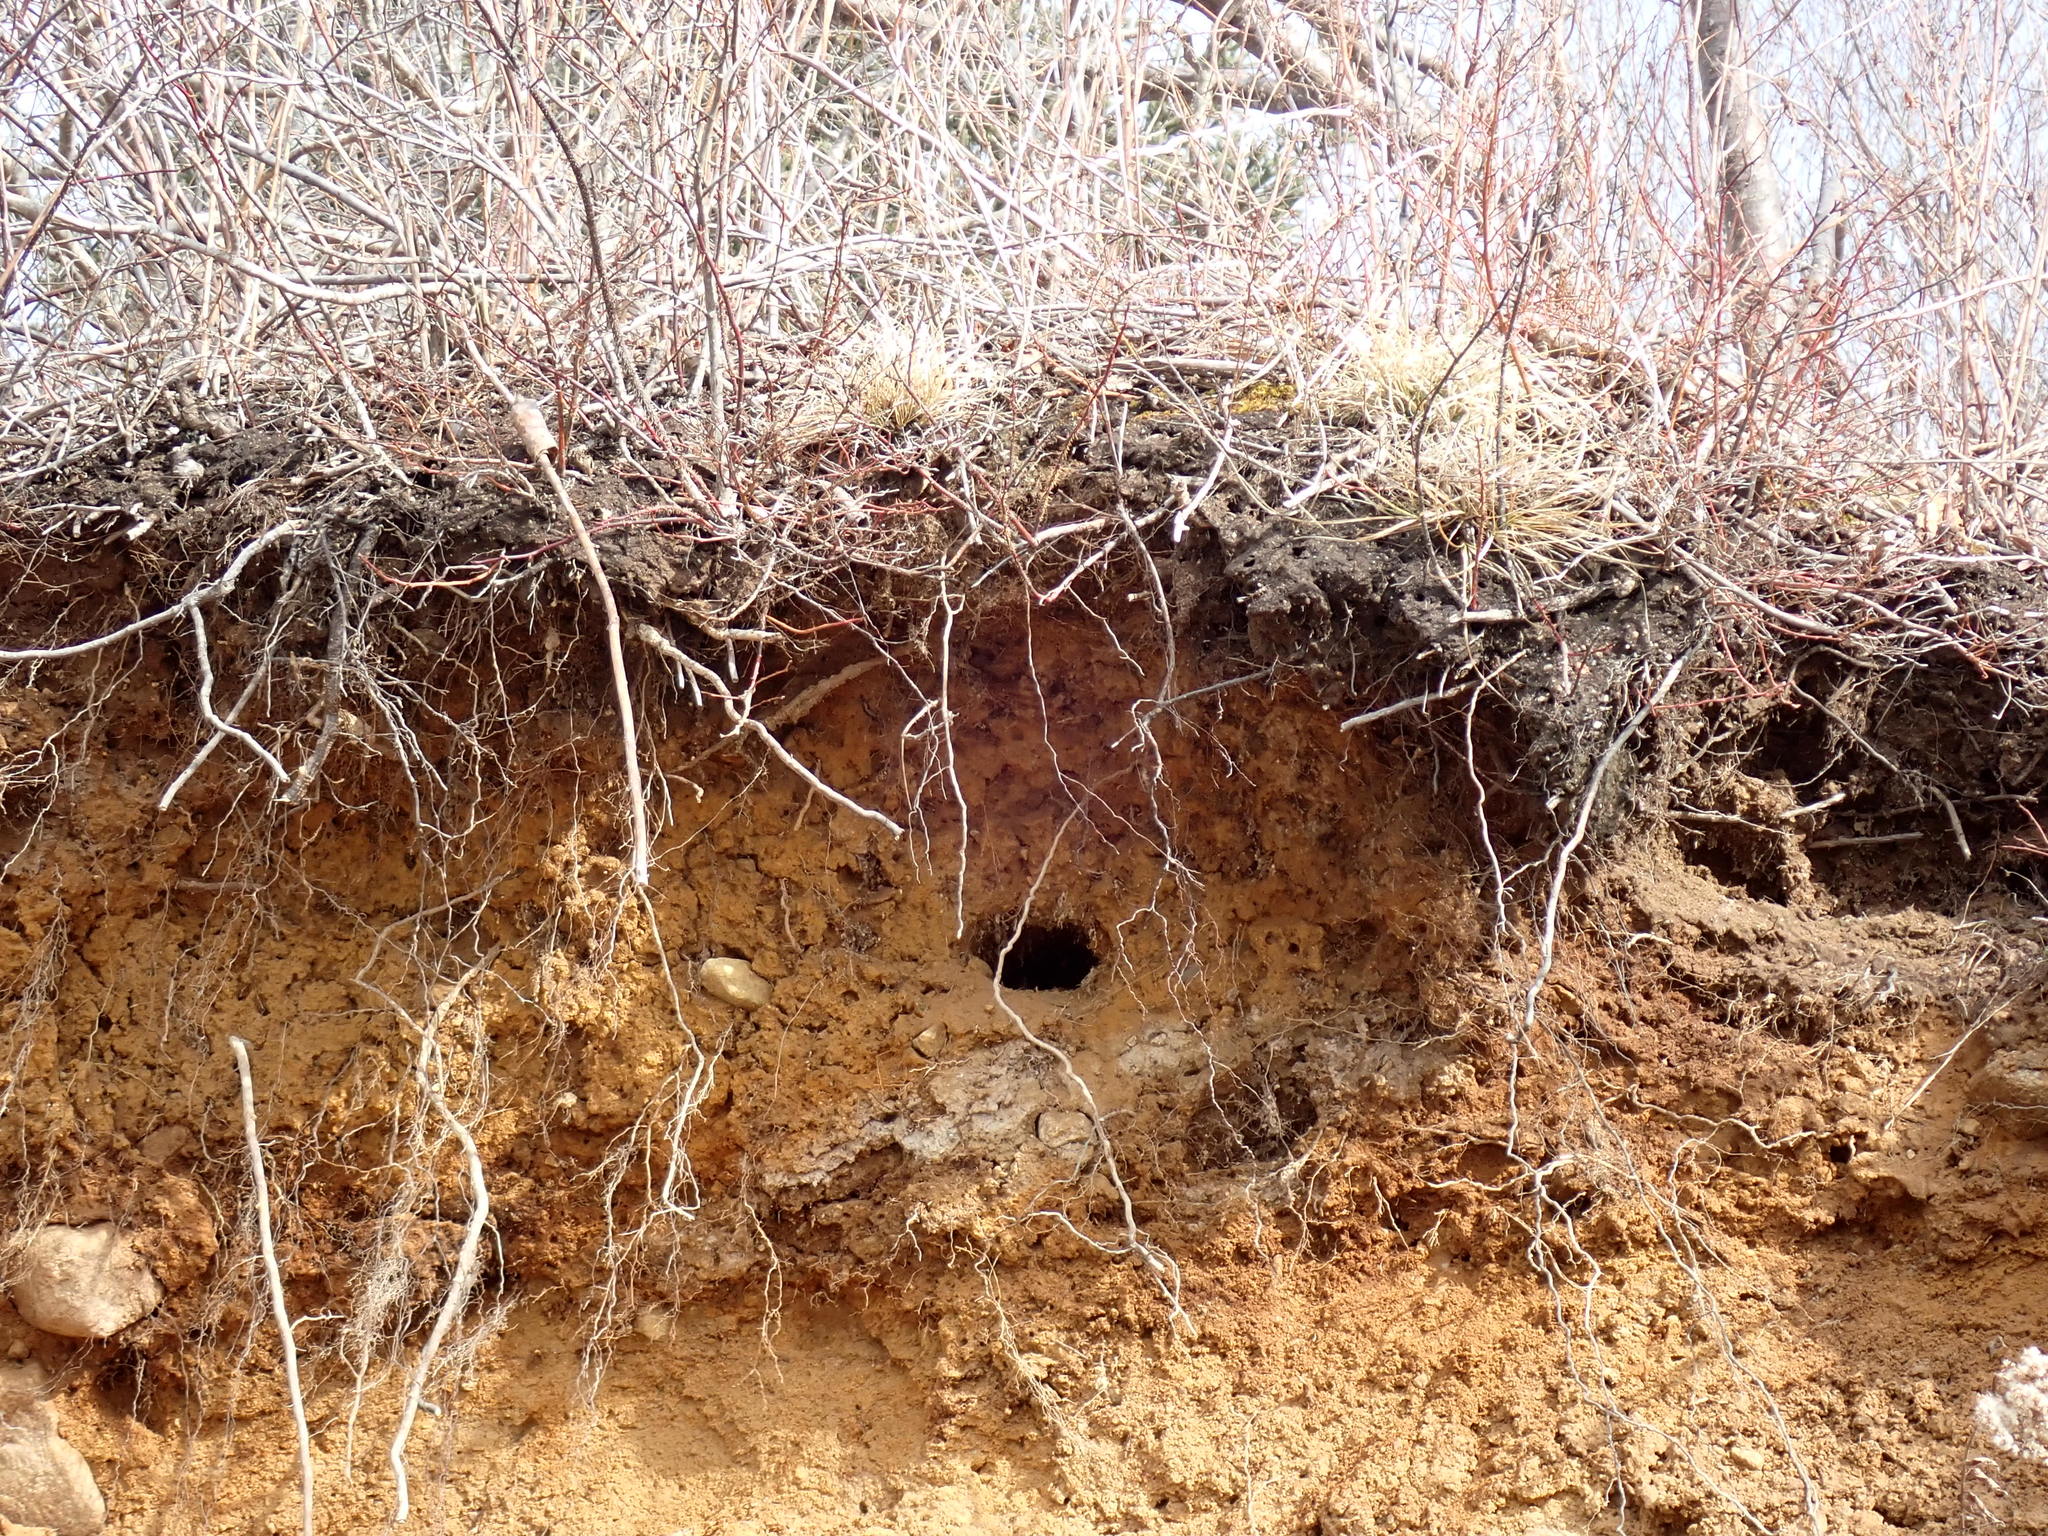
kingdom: Animalia
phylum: Chordata
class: Aves
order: Coraciiformes
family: Alcedinidae
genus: Megaceryle
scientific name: Megaceryle alcyon
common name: Belted kingfisher
